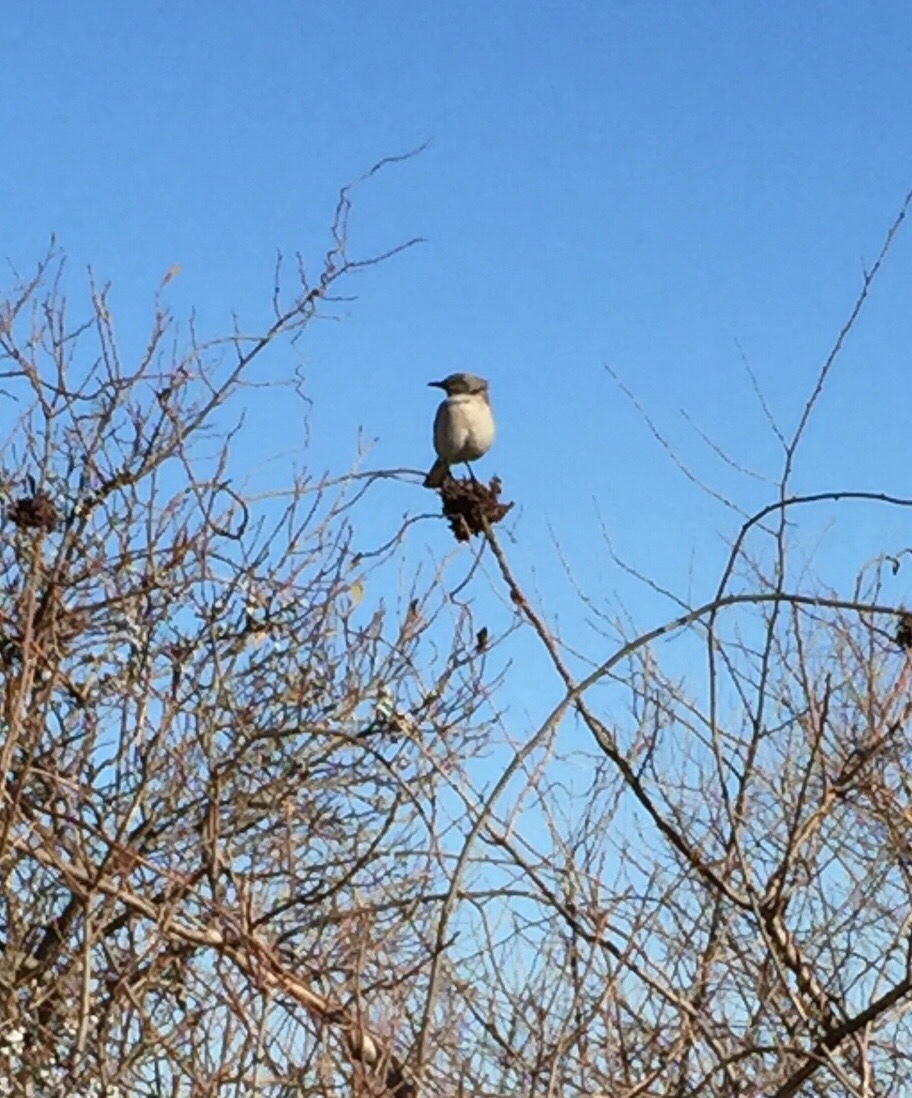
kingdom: Animalia
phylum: Chordata
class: Aves
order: Passeriformes
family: Mimidae
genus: Mimus
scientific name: Mimus polyglottos
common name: Northern mockingbird
